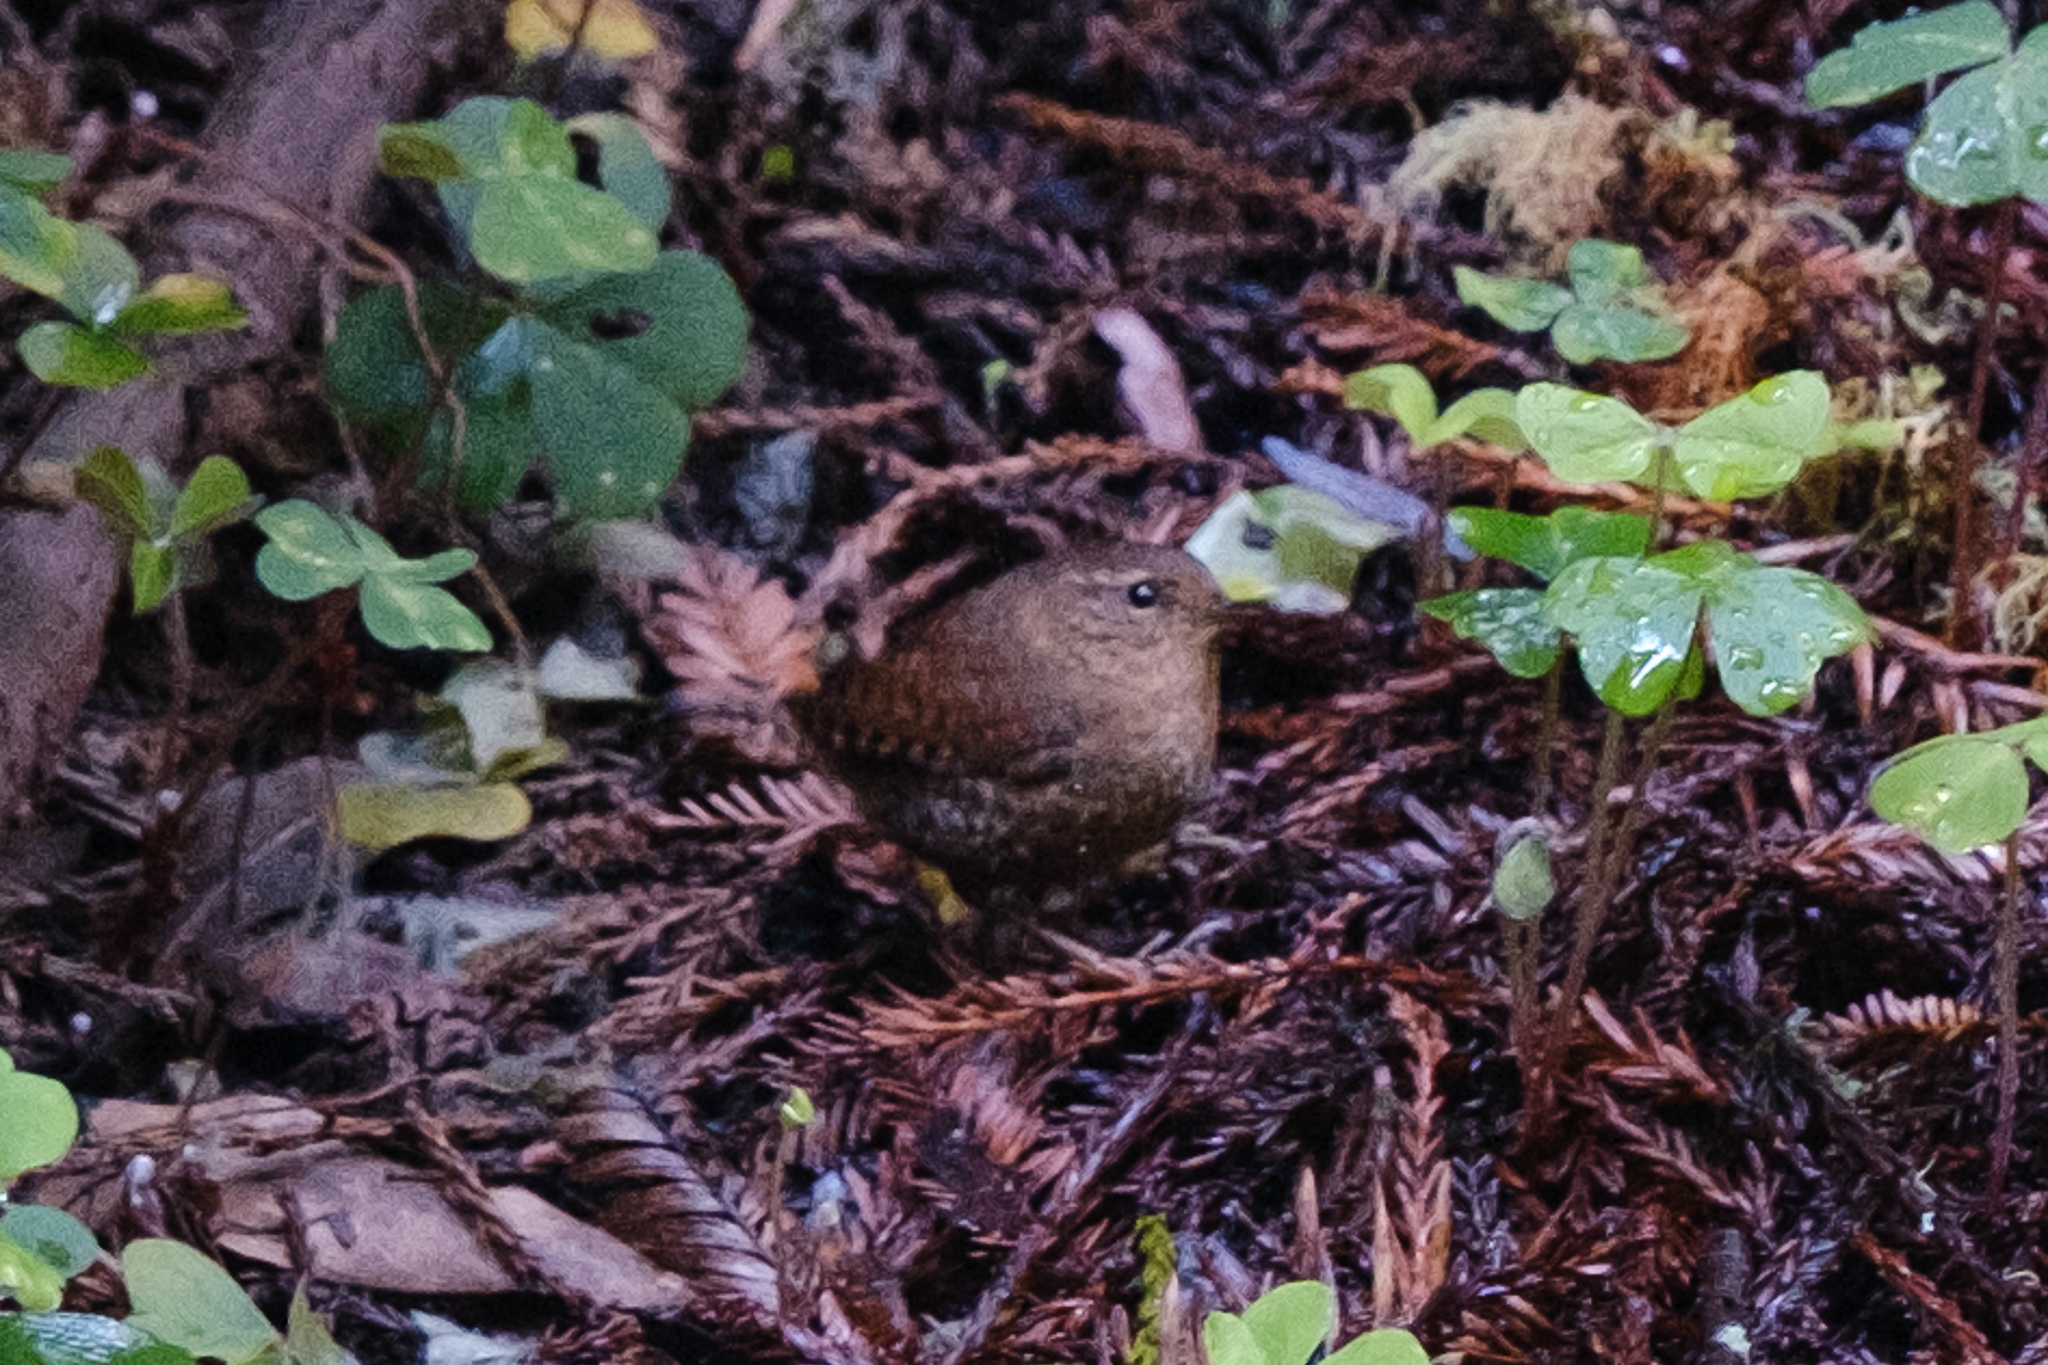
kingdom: Animalia
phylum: Chordata
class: Aves
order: Passeriformes
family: Troglodytidae
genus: Troglodytes
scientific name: Troglodytes pacificus
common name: Pacific wren
